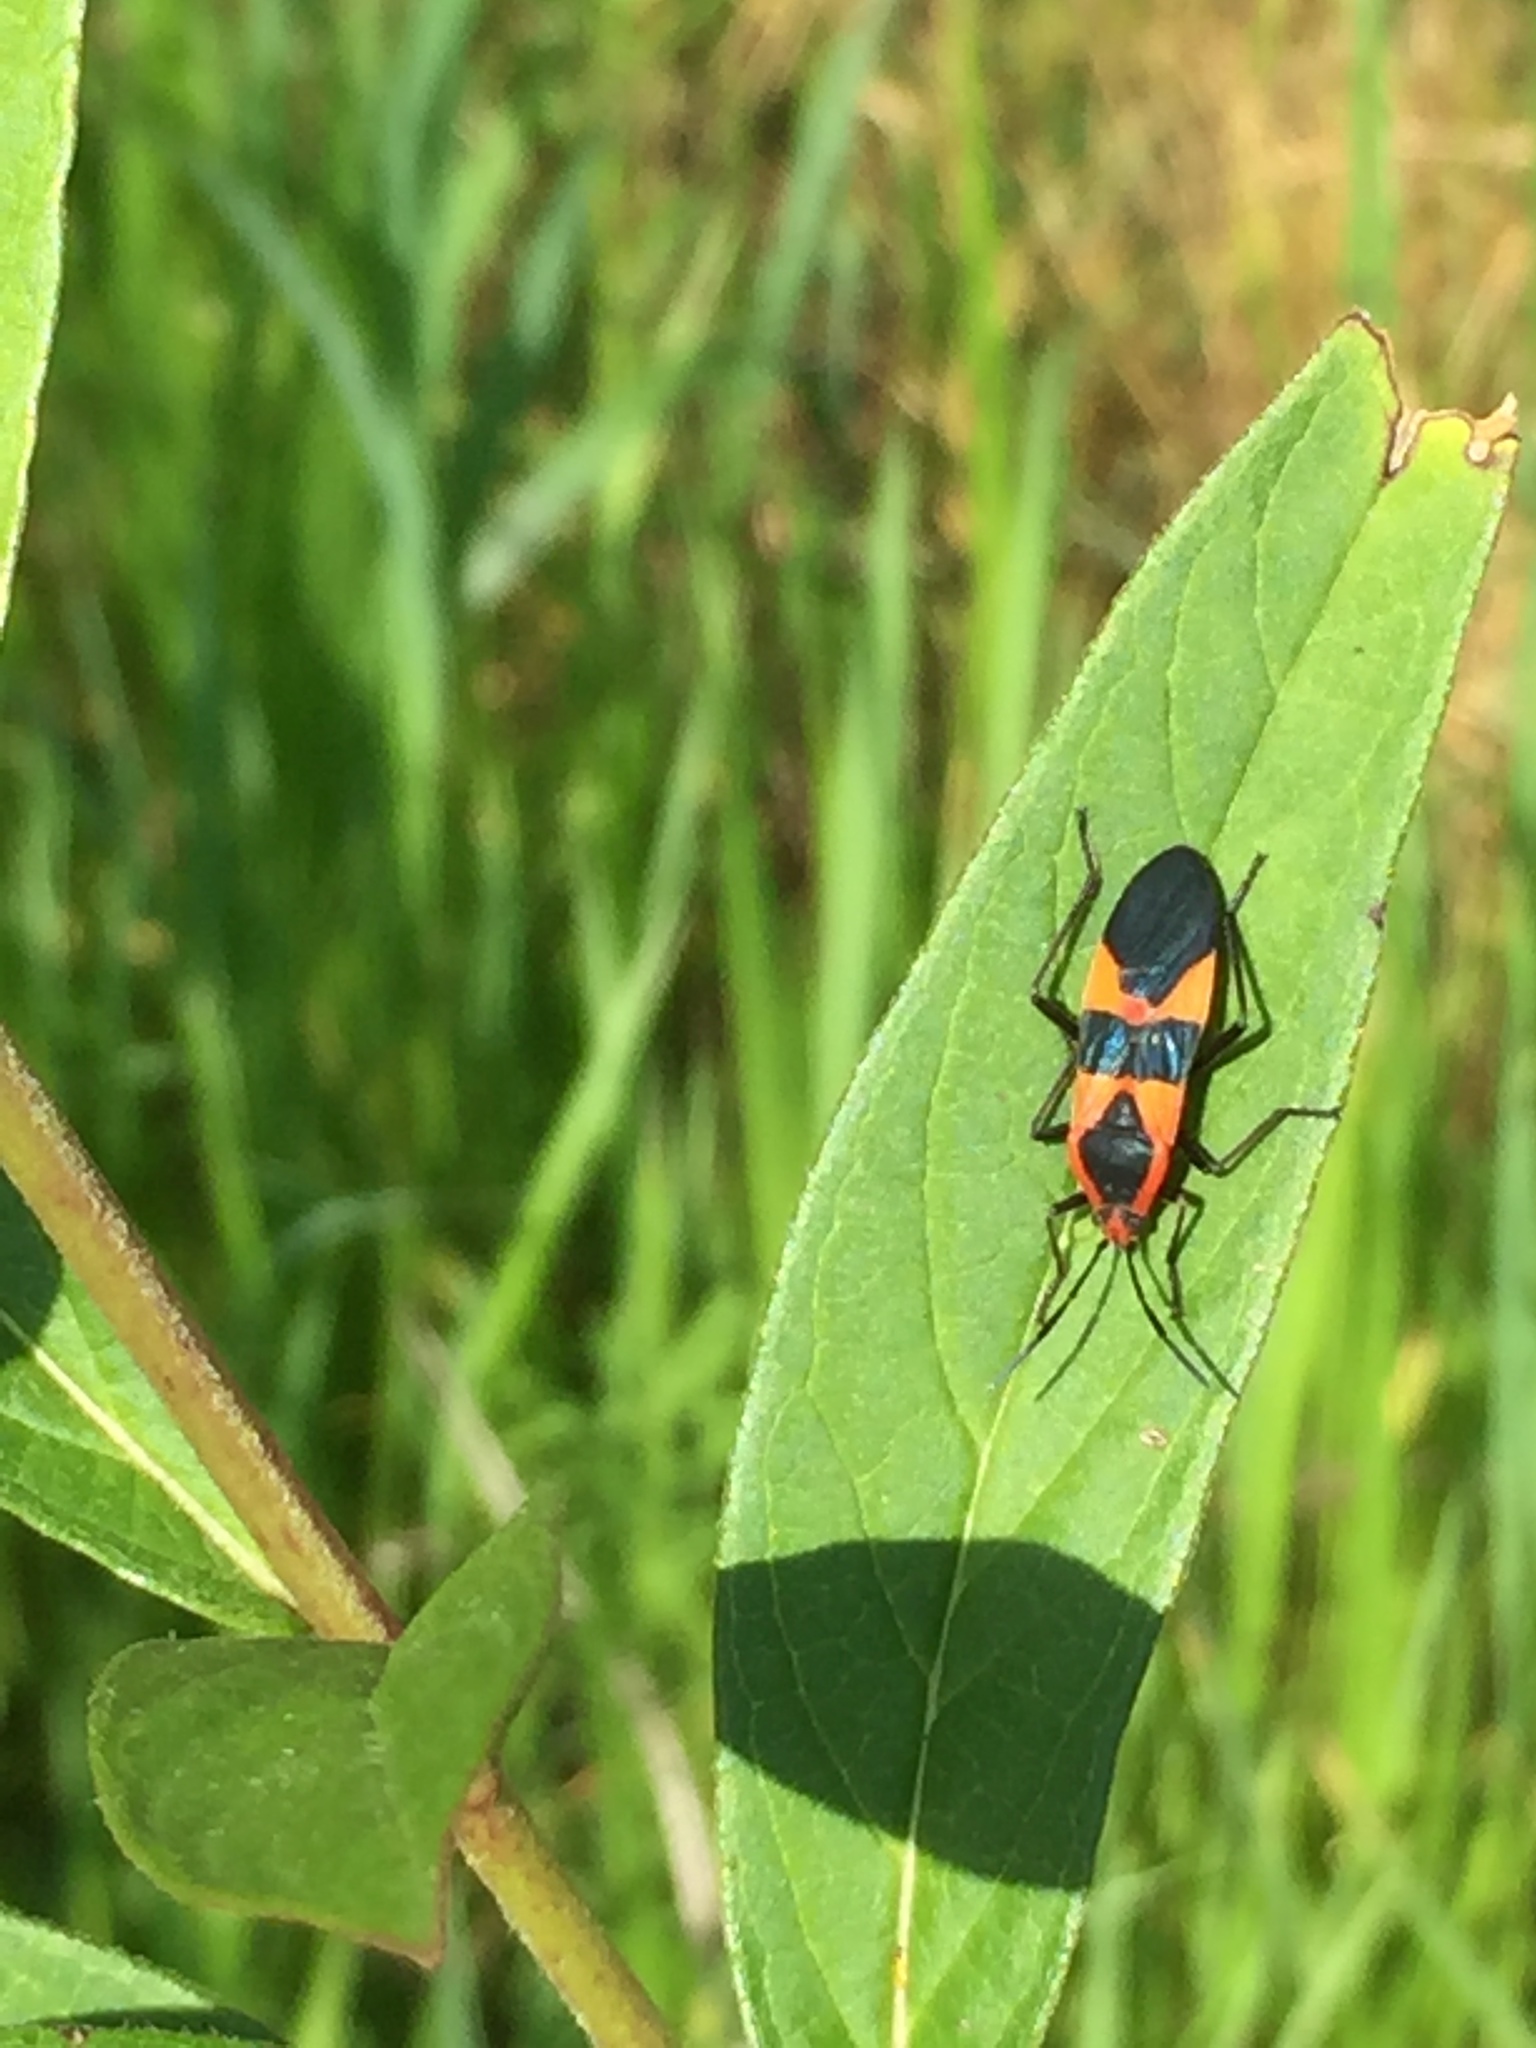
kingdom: Animalia
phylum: Arthropoda
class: Insecta
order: Hemiptera
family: Lygaeidae
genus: Oncopeltus
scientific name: Oncopeltus fasciatus
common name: Large milkweed bug
